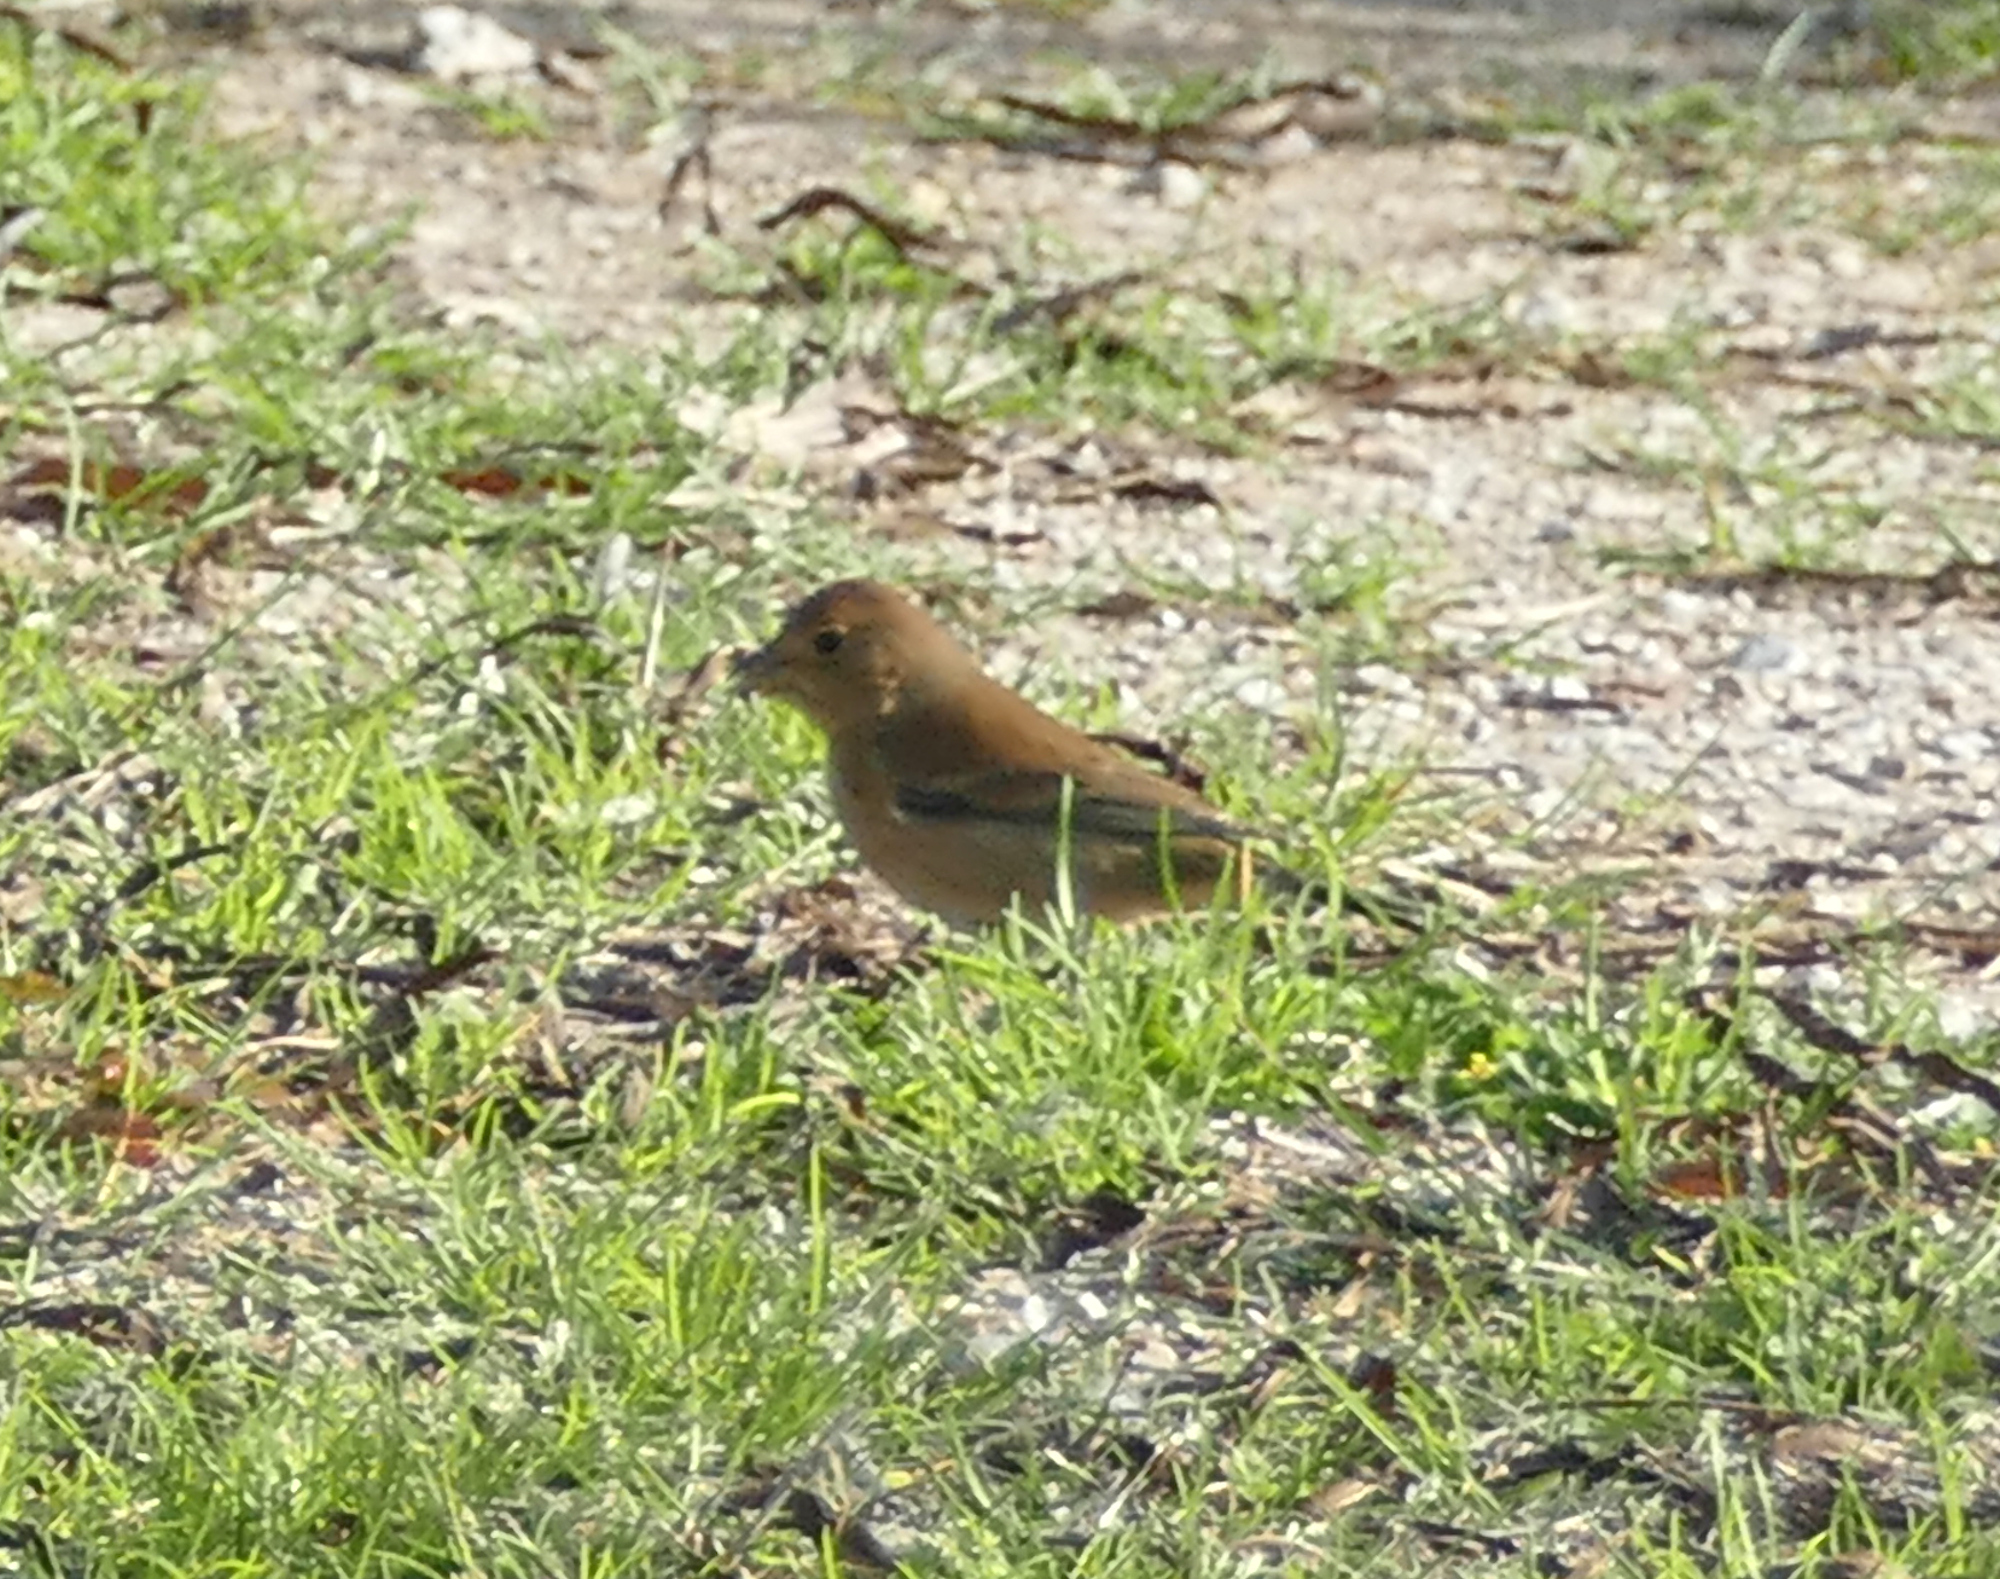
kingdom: Animalia
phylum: Chordata
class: Aves
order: Passeriformes
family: Cardinalidae
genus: Passerina
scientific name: Passerina cyanea
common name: Indigo bunting
